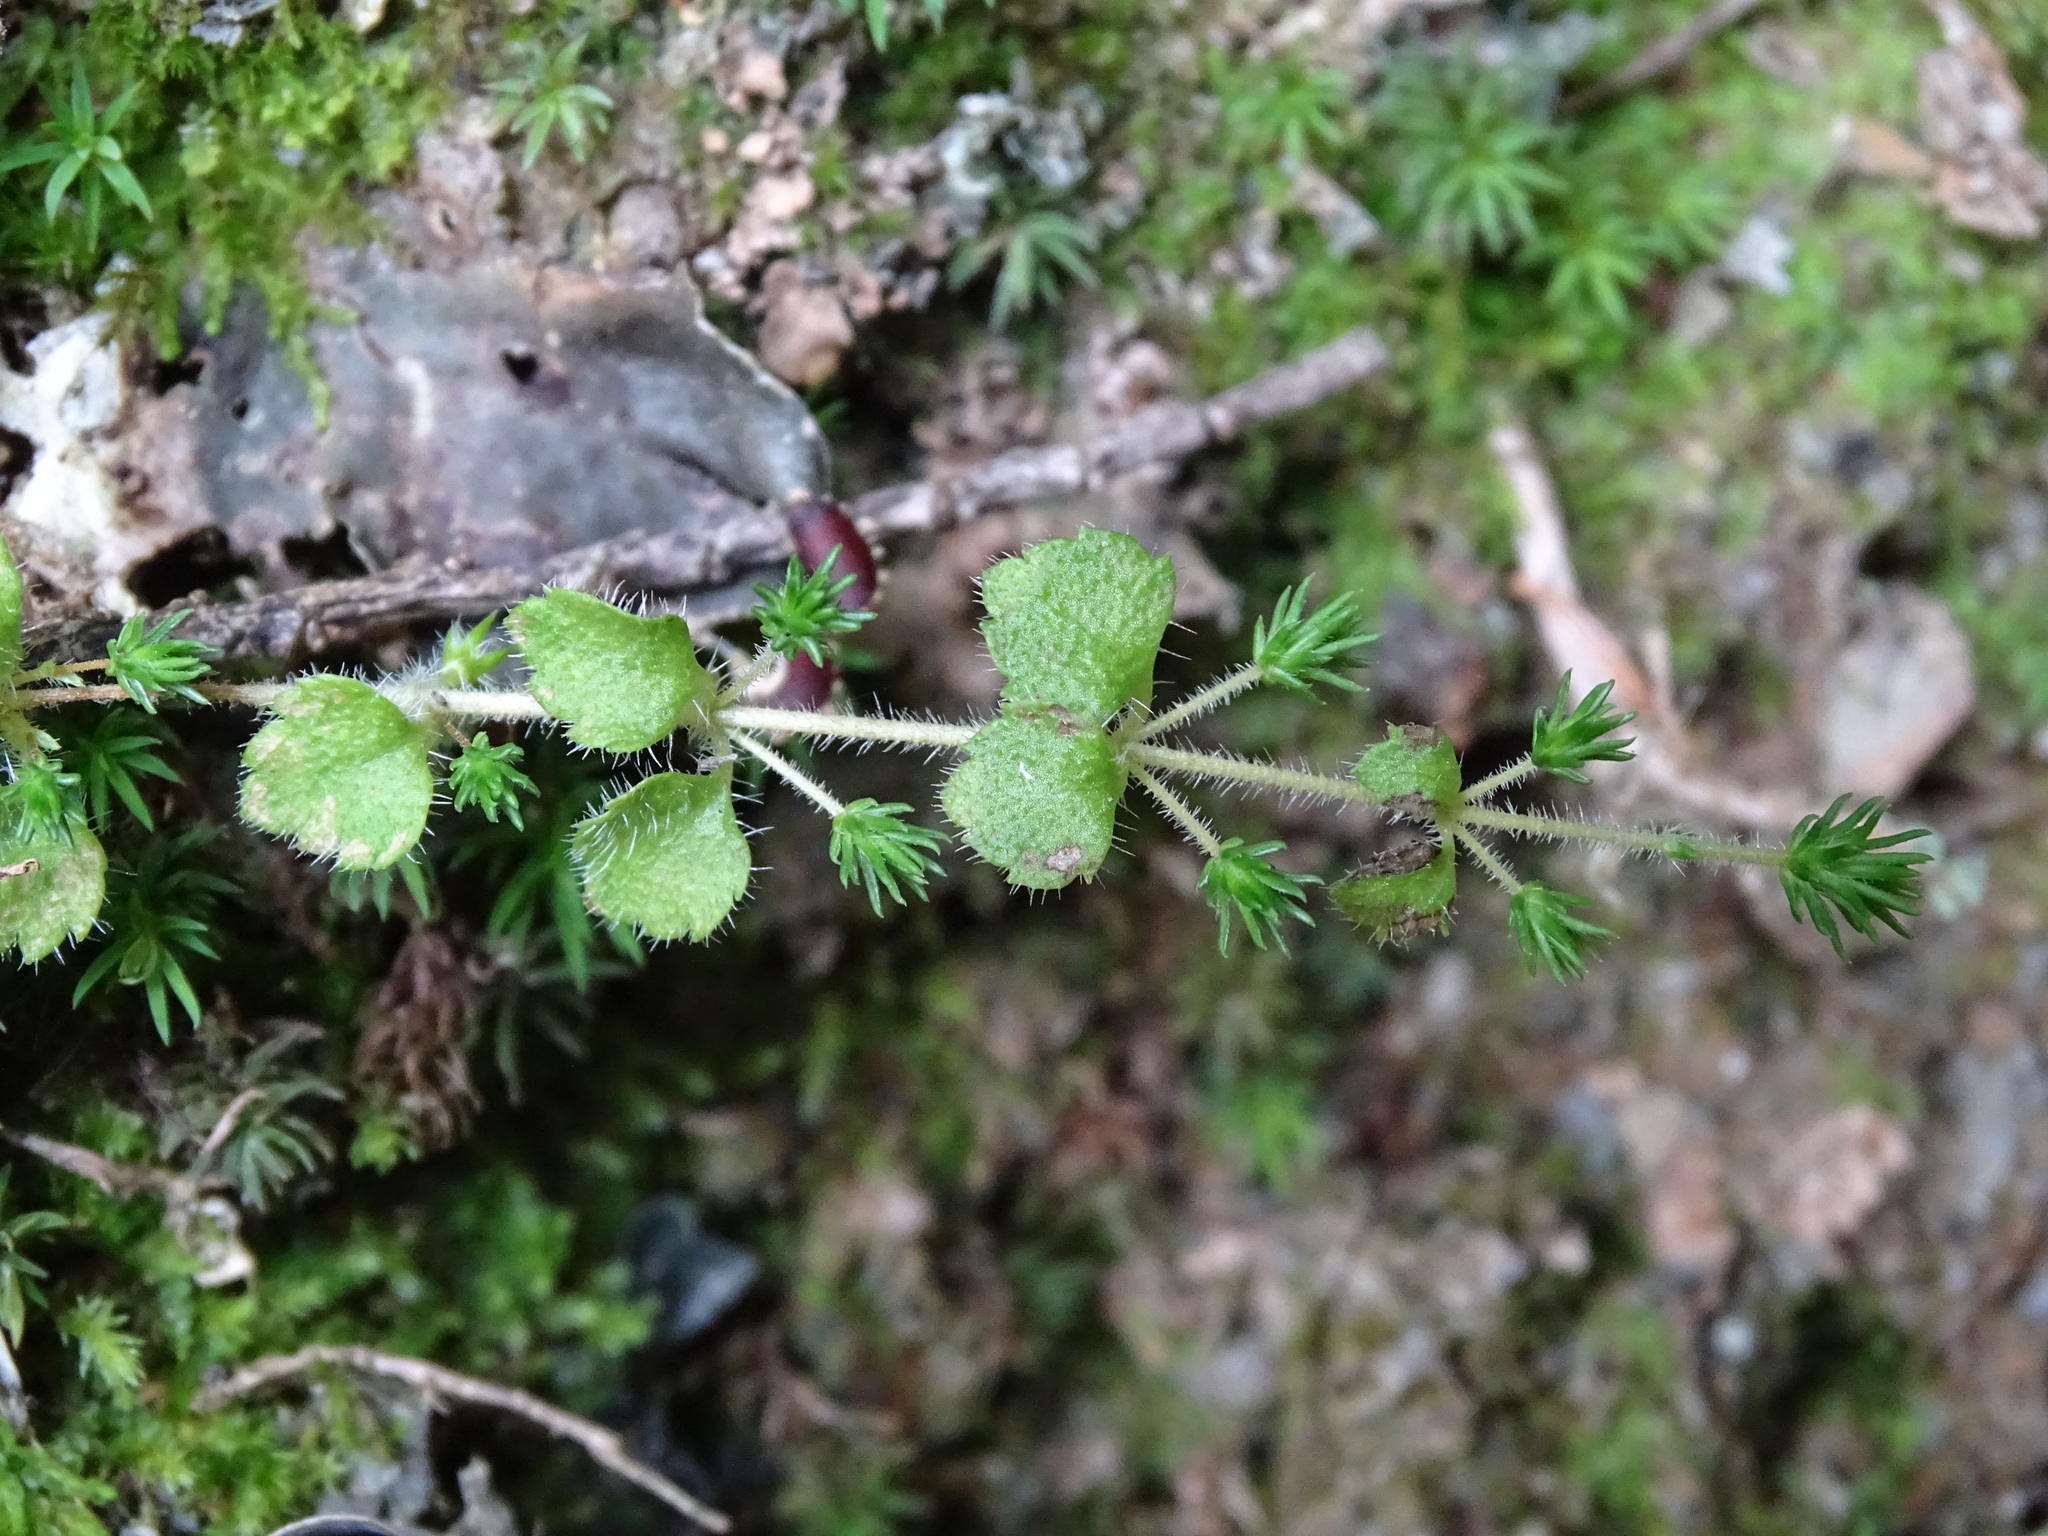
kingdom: Plantae
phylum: Tracheophyta
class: Magnoliopsida
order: Lamiales
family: Plantaginaceae
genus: Hemiphragma
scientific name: Hemiphragma heterophyllum
